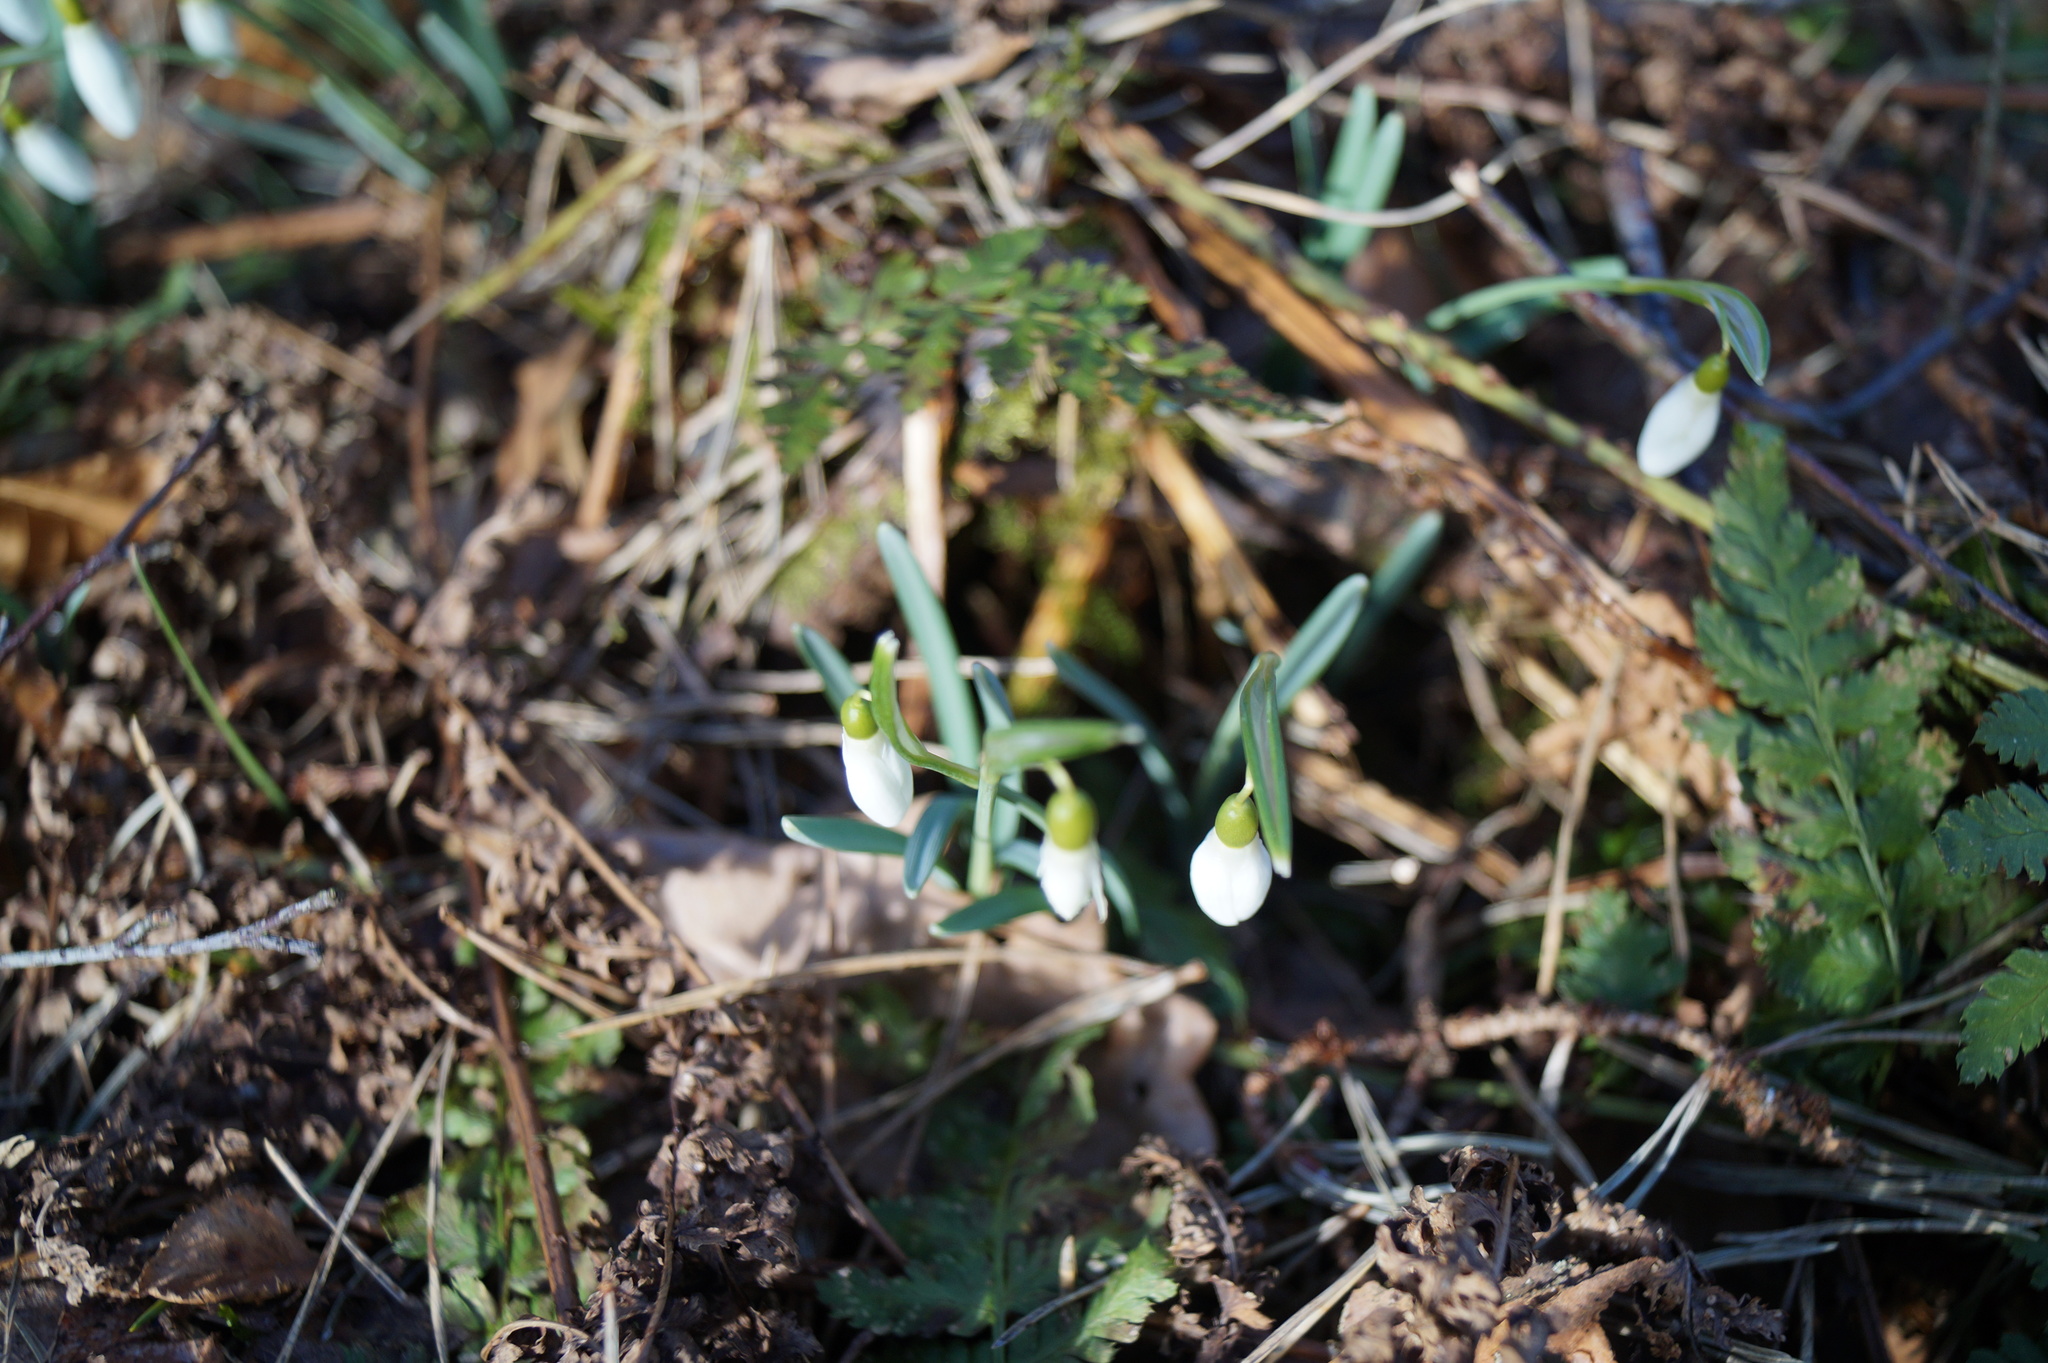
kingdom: Plantae
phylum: Tracheophyta
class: Liliopsida
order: Asparagales
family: Amaryllidaceae
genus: Galanthus
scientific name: Galanthus nivalis
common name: Snowdrop
